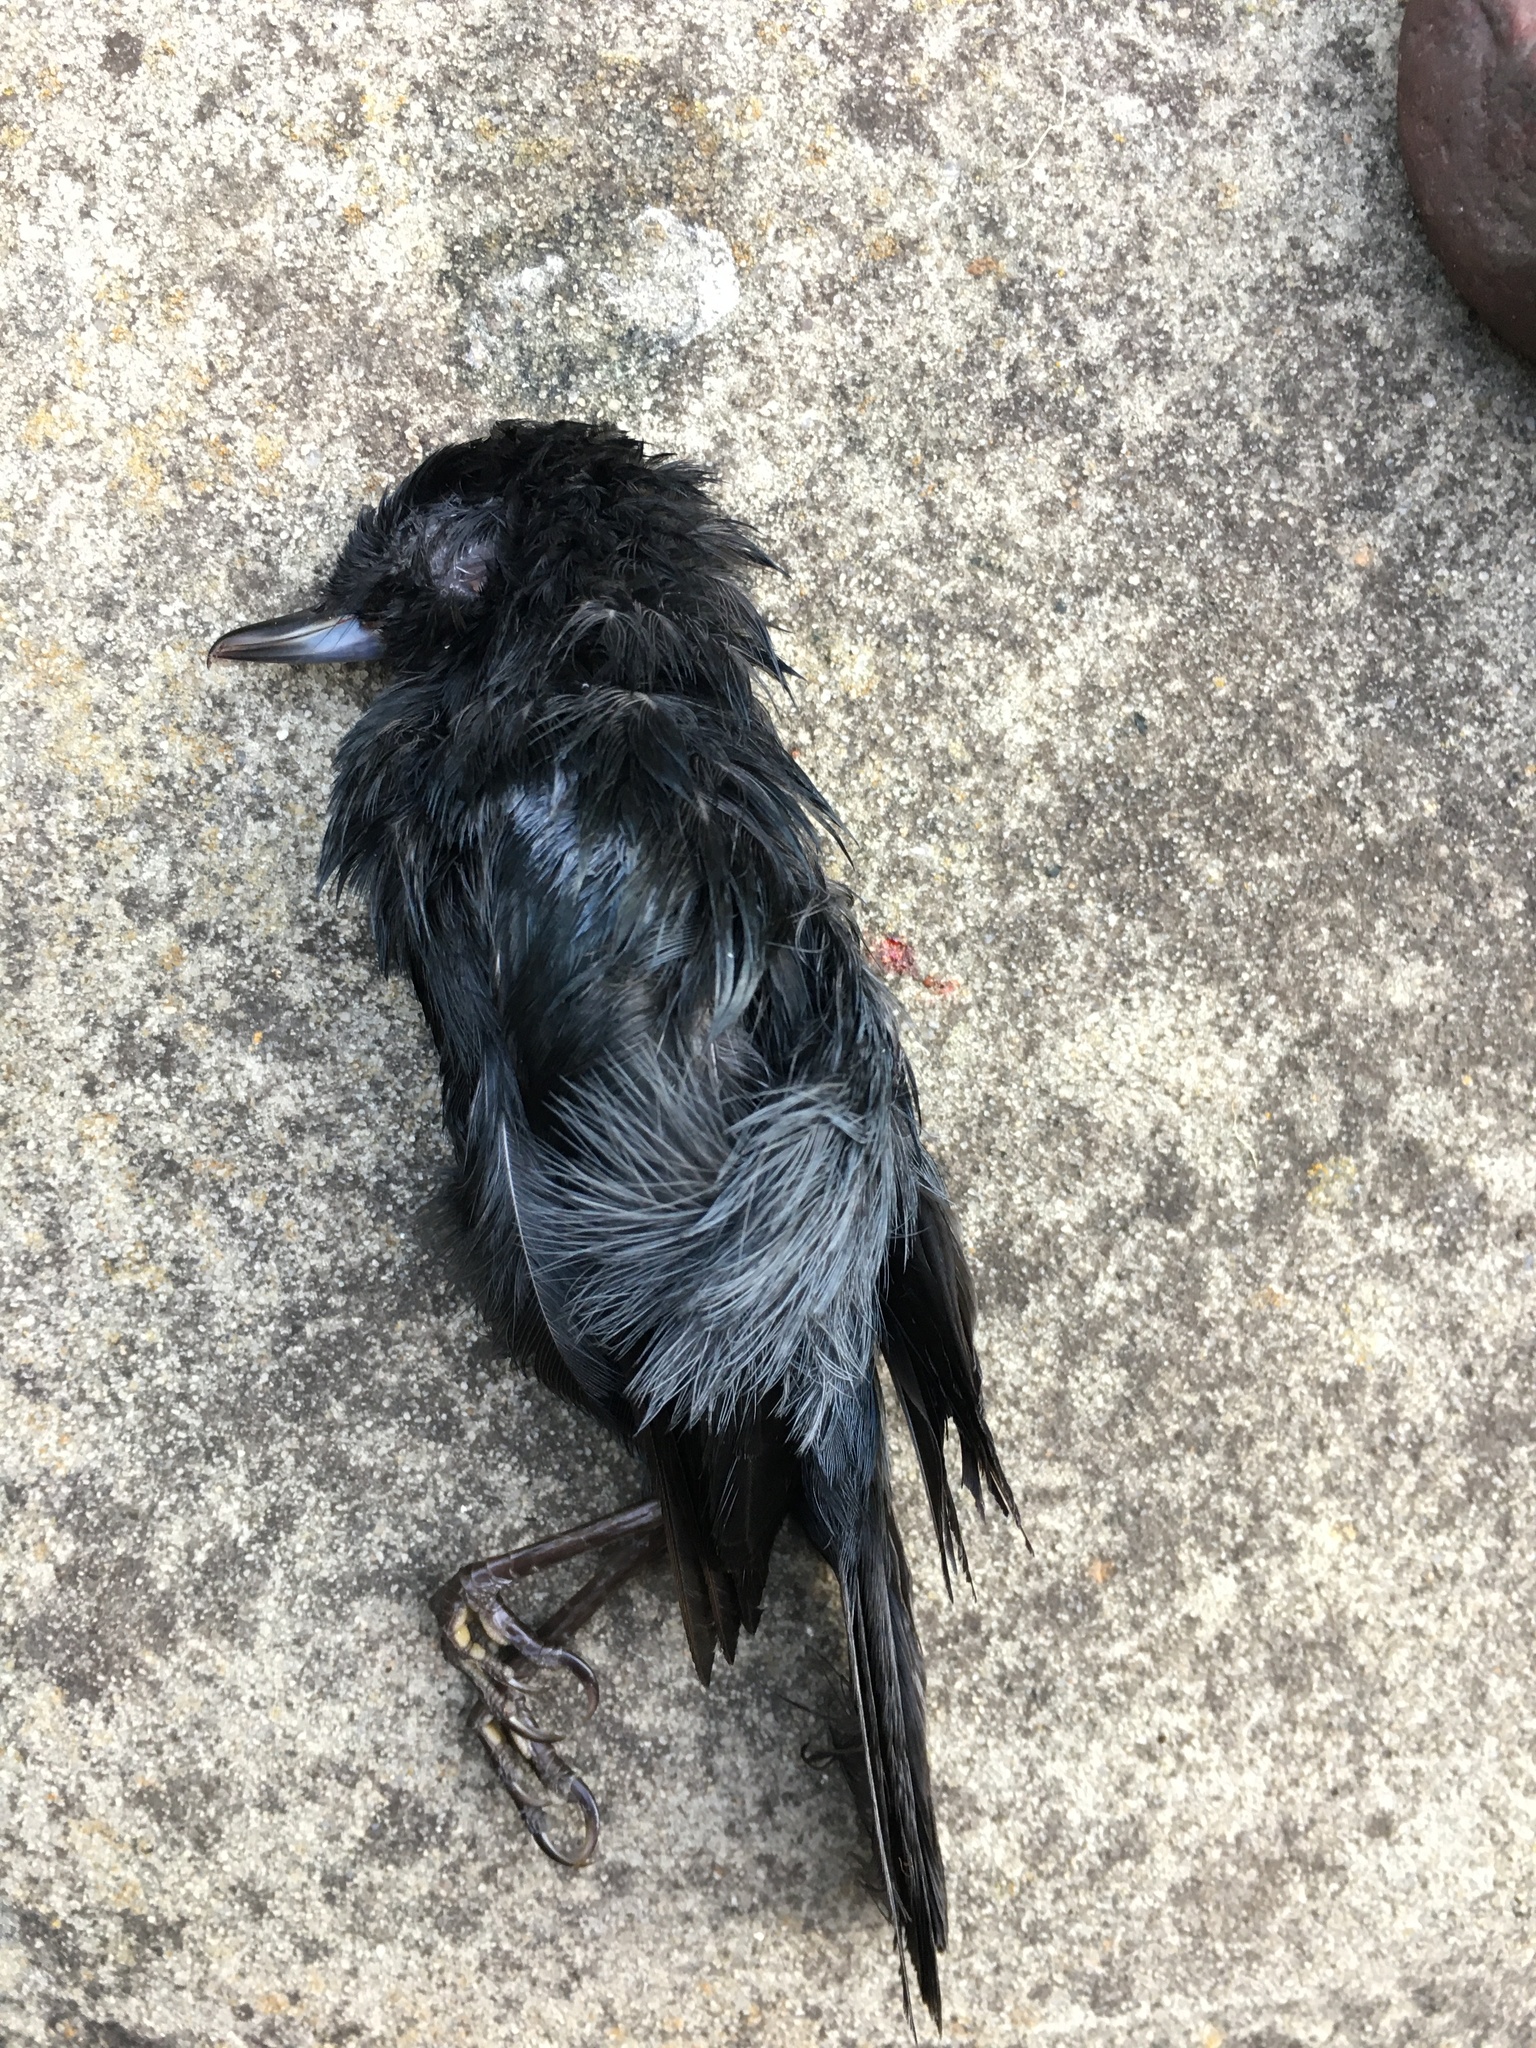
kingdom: Animalia
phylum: Chordata
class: Aves
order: Passeriformes
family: Thraupidae
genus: Diglossa
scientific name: Diglossa humeralis
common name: Black flowerpiercer
